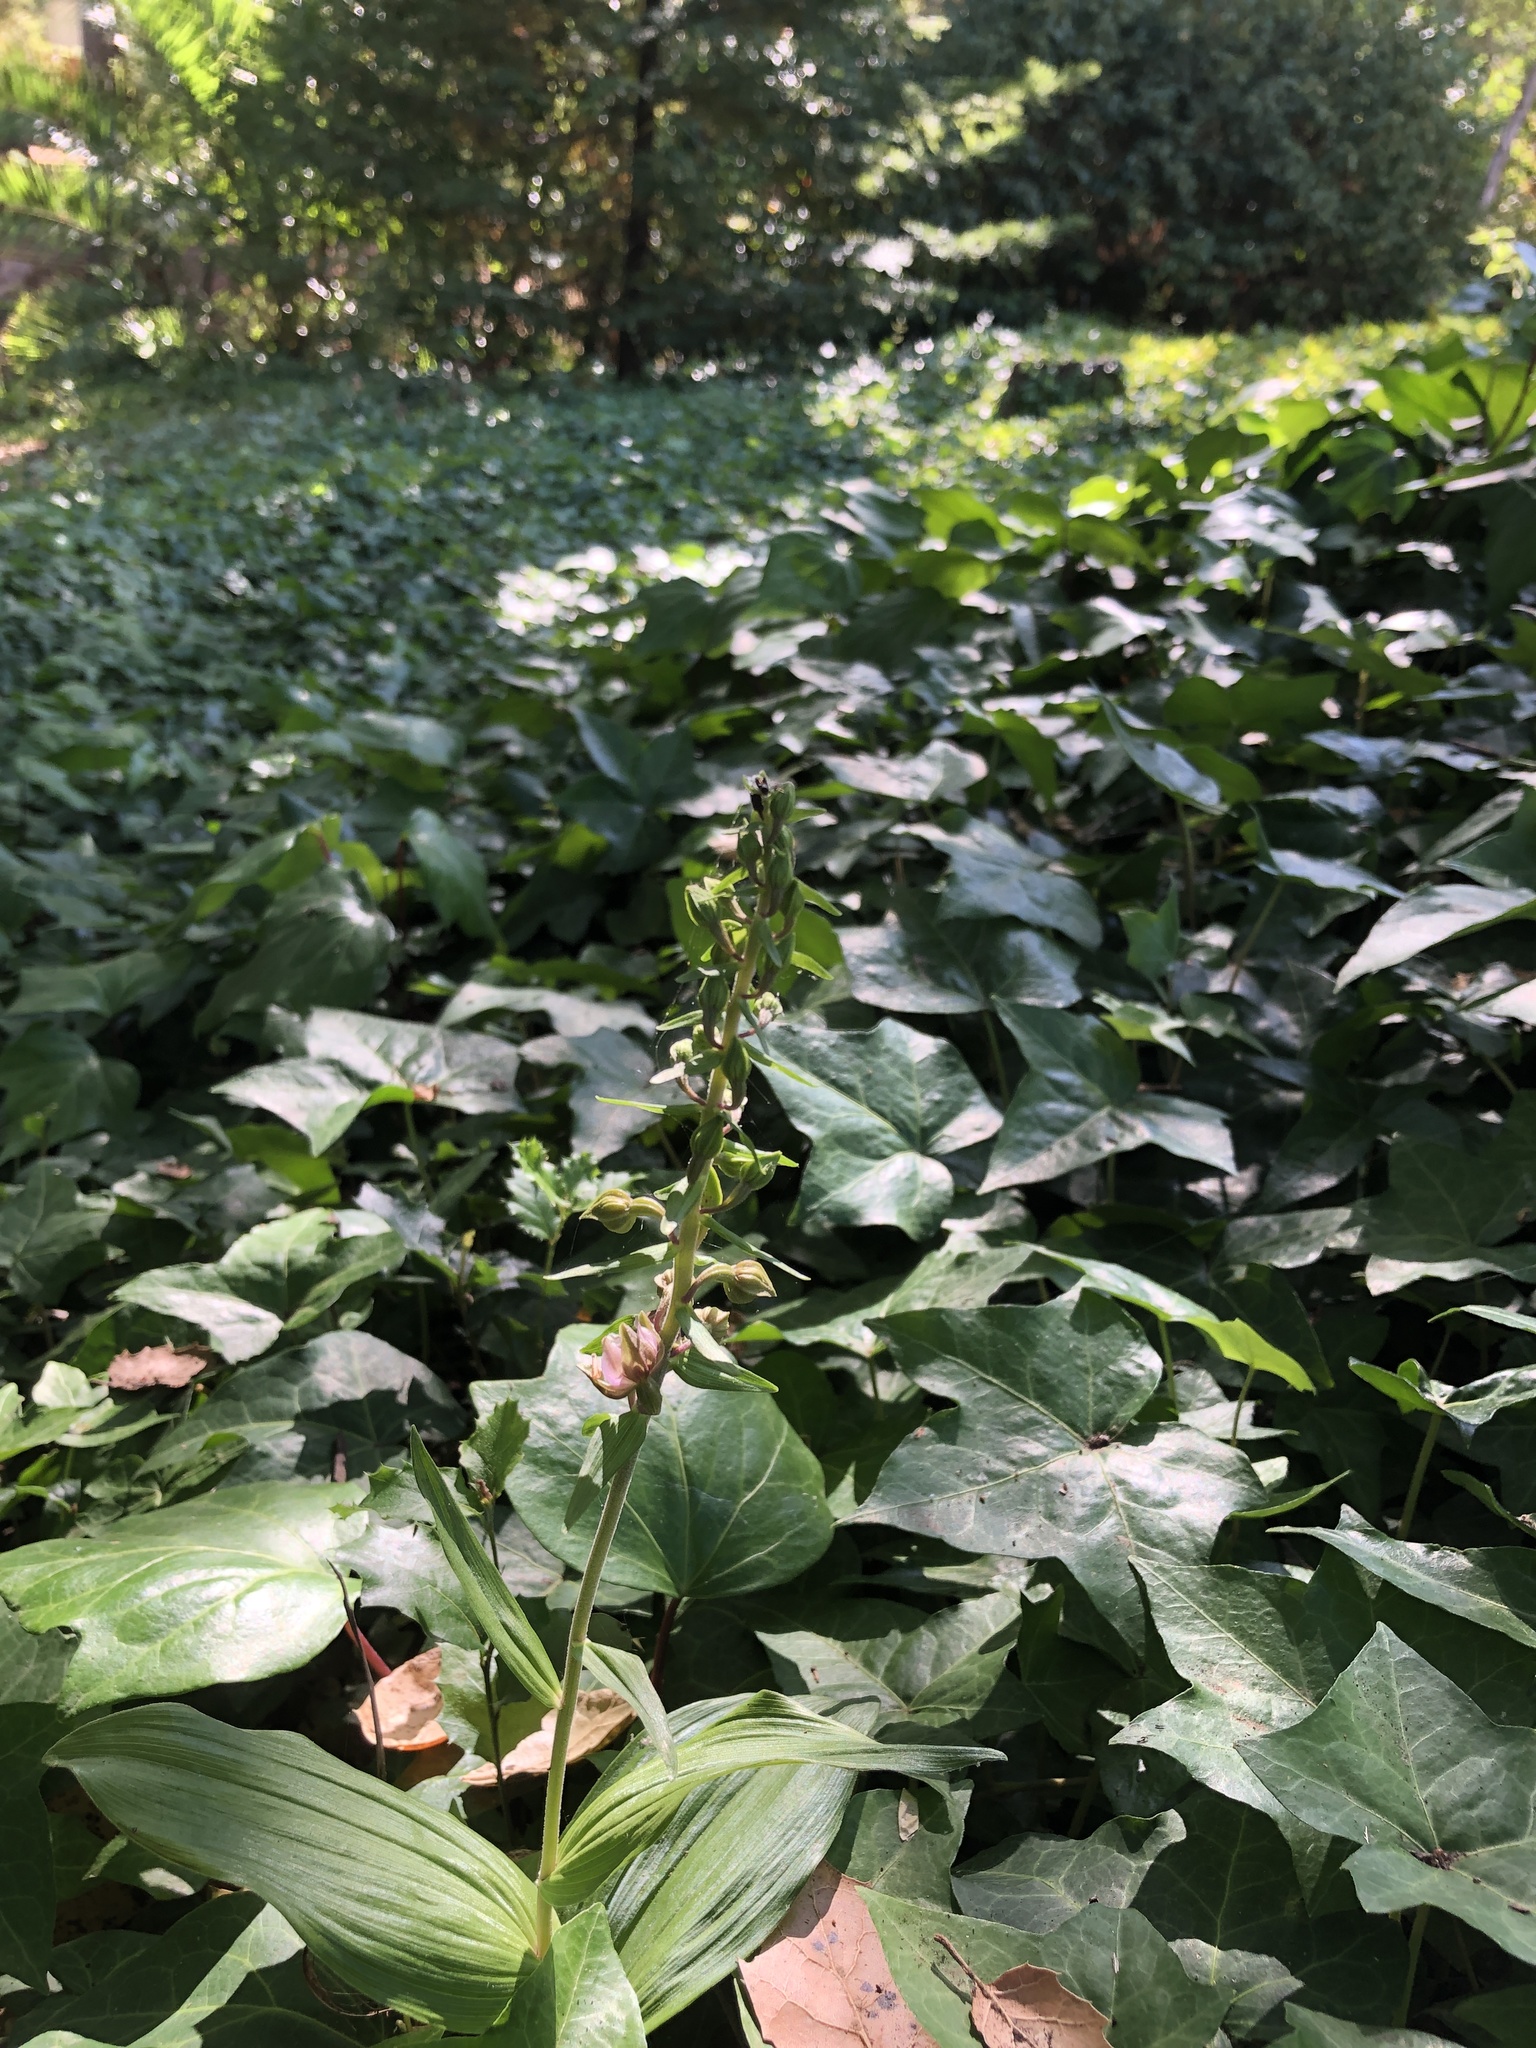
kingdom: Plantae
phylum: Tracheophyta
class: Liliopsida
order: Asparagales
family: Orchidaceae
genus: Epipactis
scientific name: Epipactis helleborine
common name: Broad-leaved helleborine
